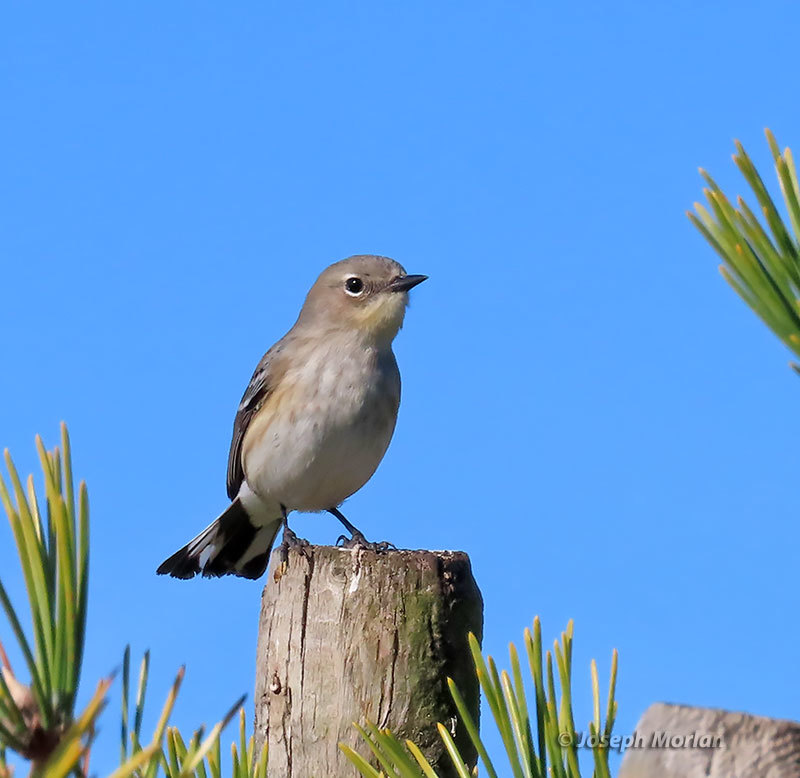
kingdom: Animalia
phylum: Chordata
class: Aves
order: Passeriformes
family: Parulidae
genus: Setophaga
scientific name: Setophaga coronata
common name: Myrtle warbler
